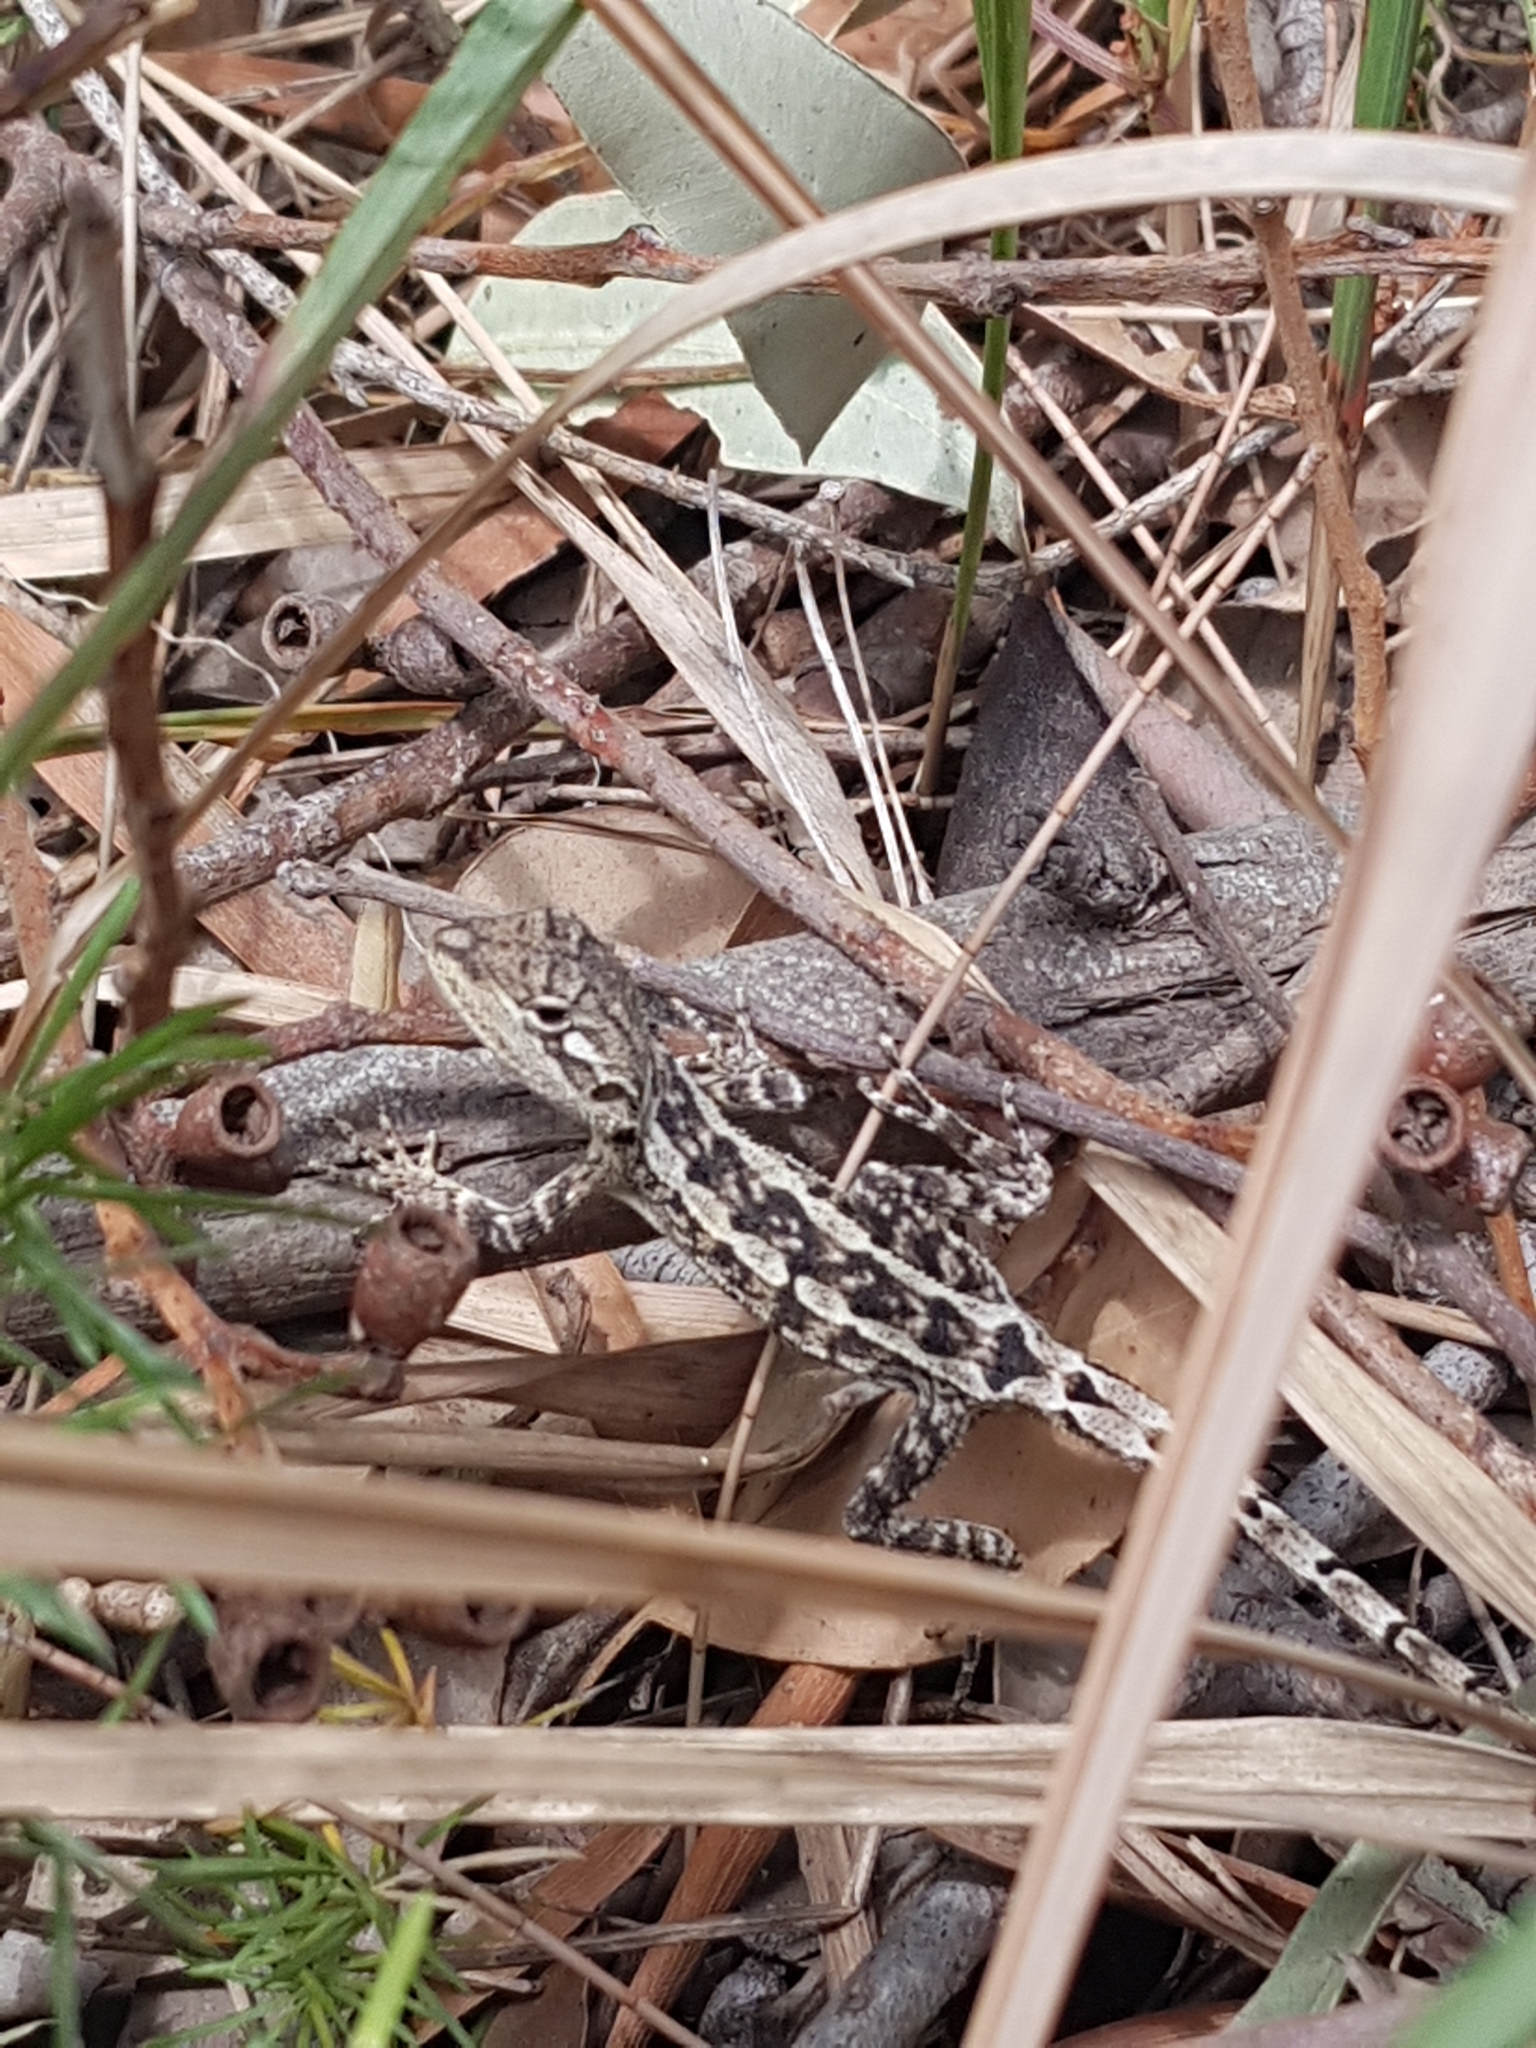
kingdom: Animalia
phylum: Chordata
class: Squamata
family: Agamidae
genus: Amphibolurus
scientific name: Amphibolurus muricatus
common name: Jacky lizard
